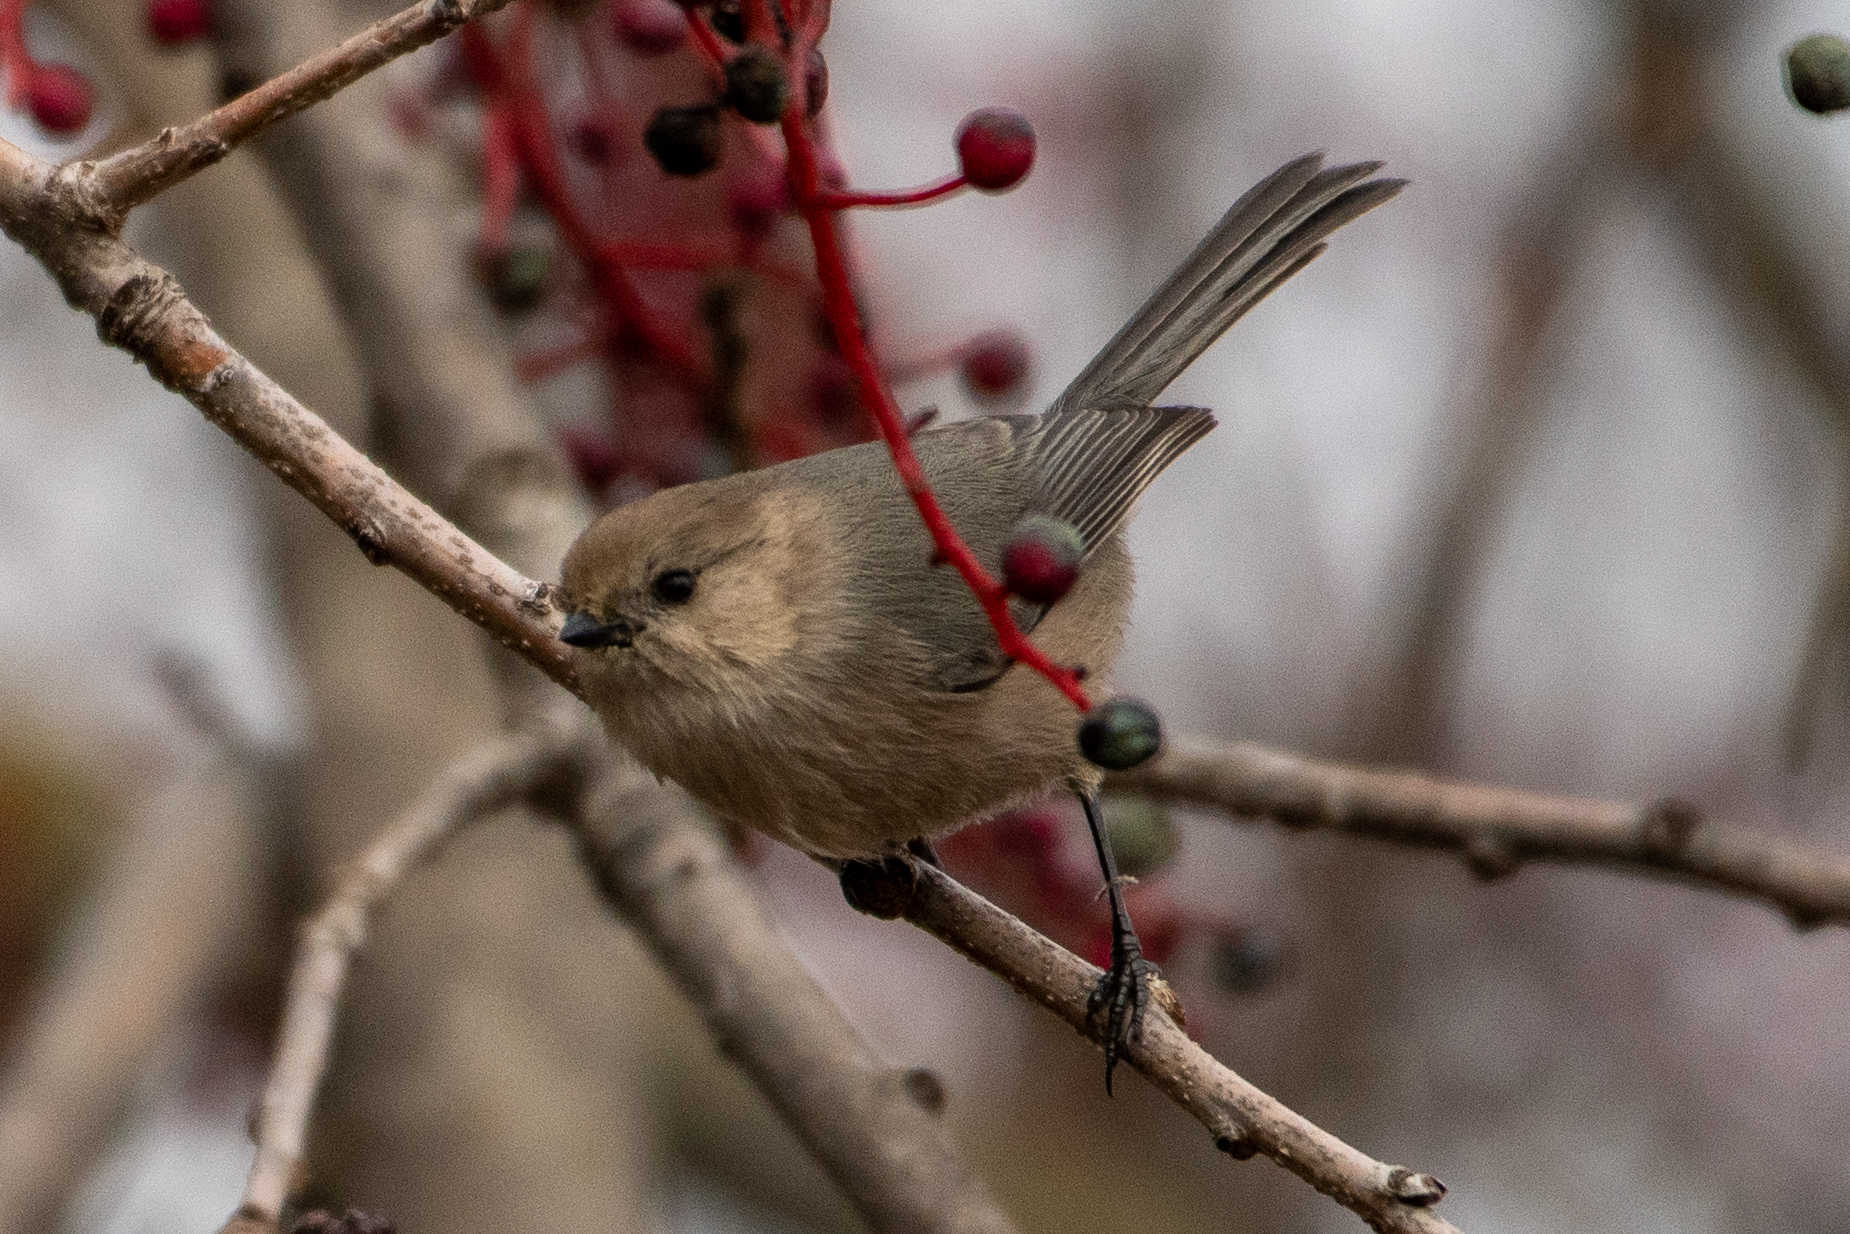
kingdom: Animalia
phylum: Chordata
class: Aves
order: Passeriformes
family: Aegithalidae
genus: Psaltriparus
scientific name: Psaltriparus minimus
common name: American bushtit
